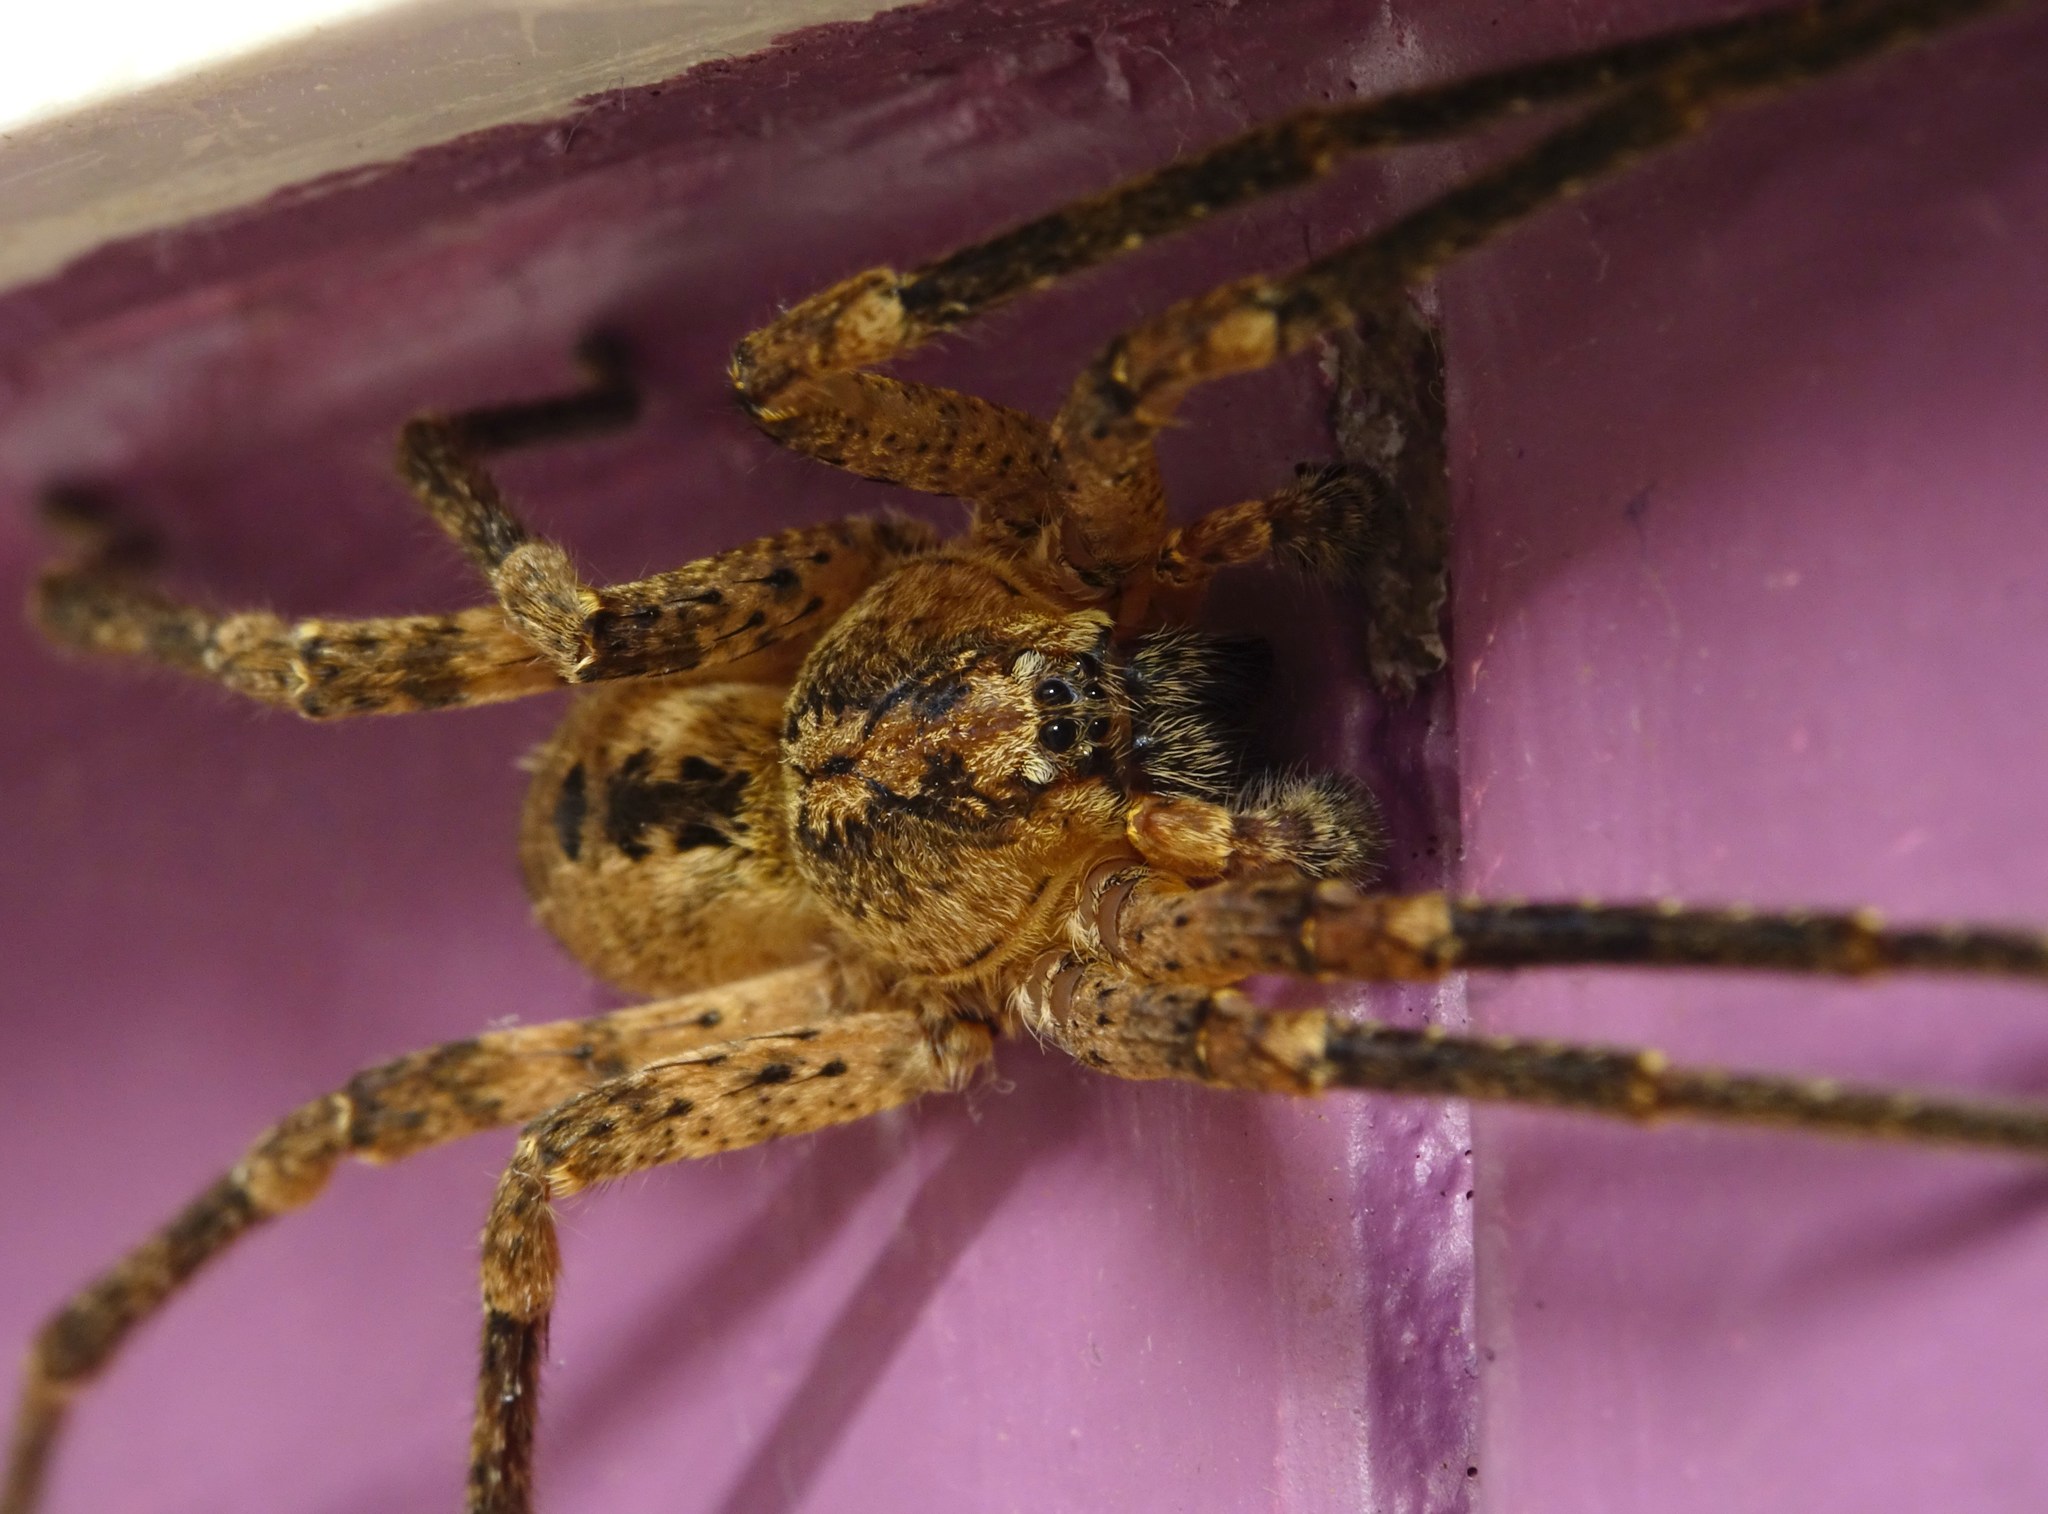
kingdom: Animalia
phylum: Arthropoda
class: Arachnida
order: Araneae
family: Zoropsidae
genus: Zoropsis
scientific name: Zoropsis spinimana
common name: Zoropsid spider
